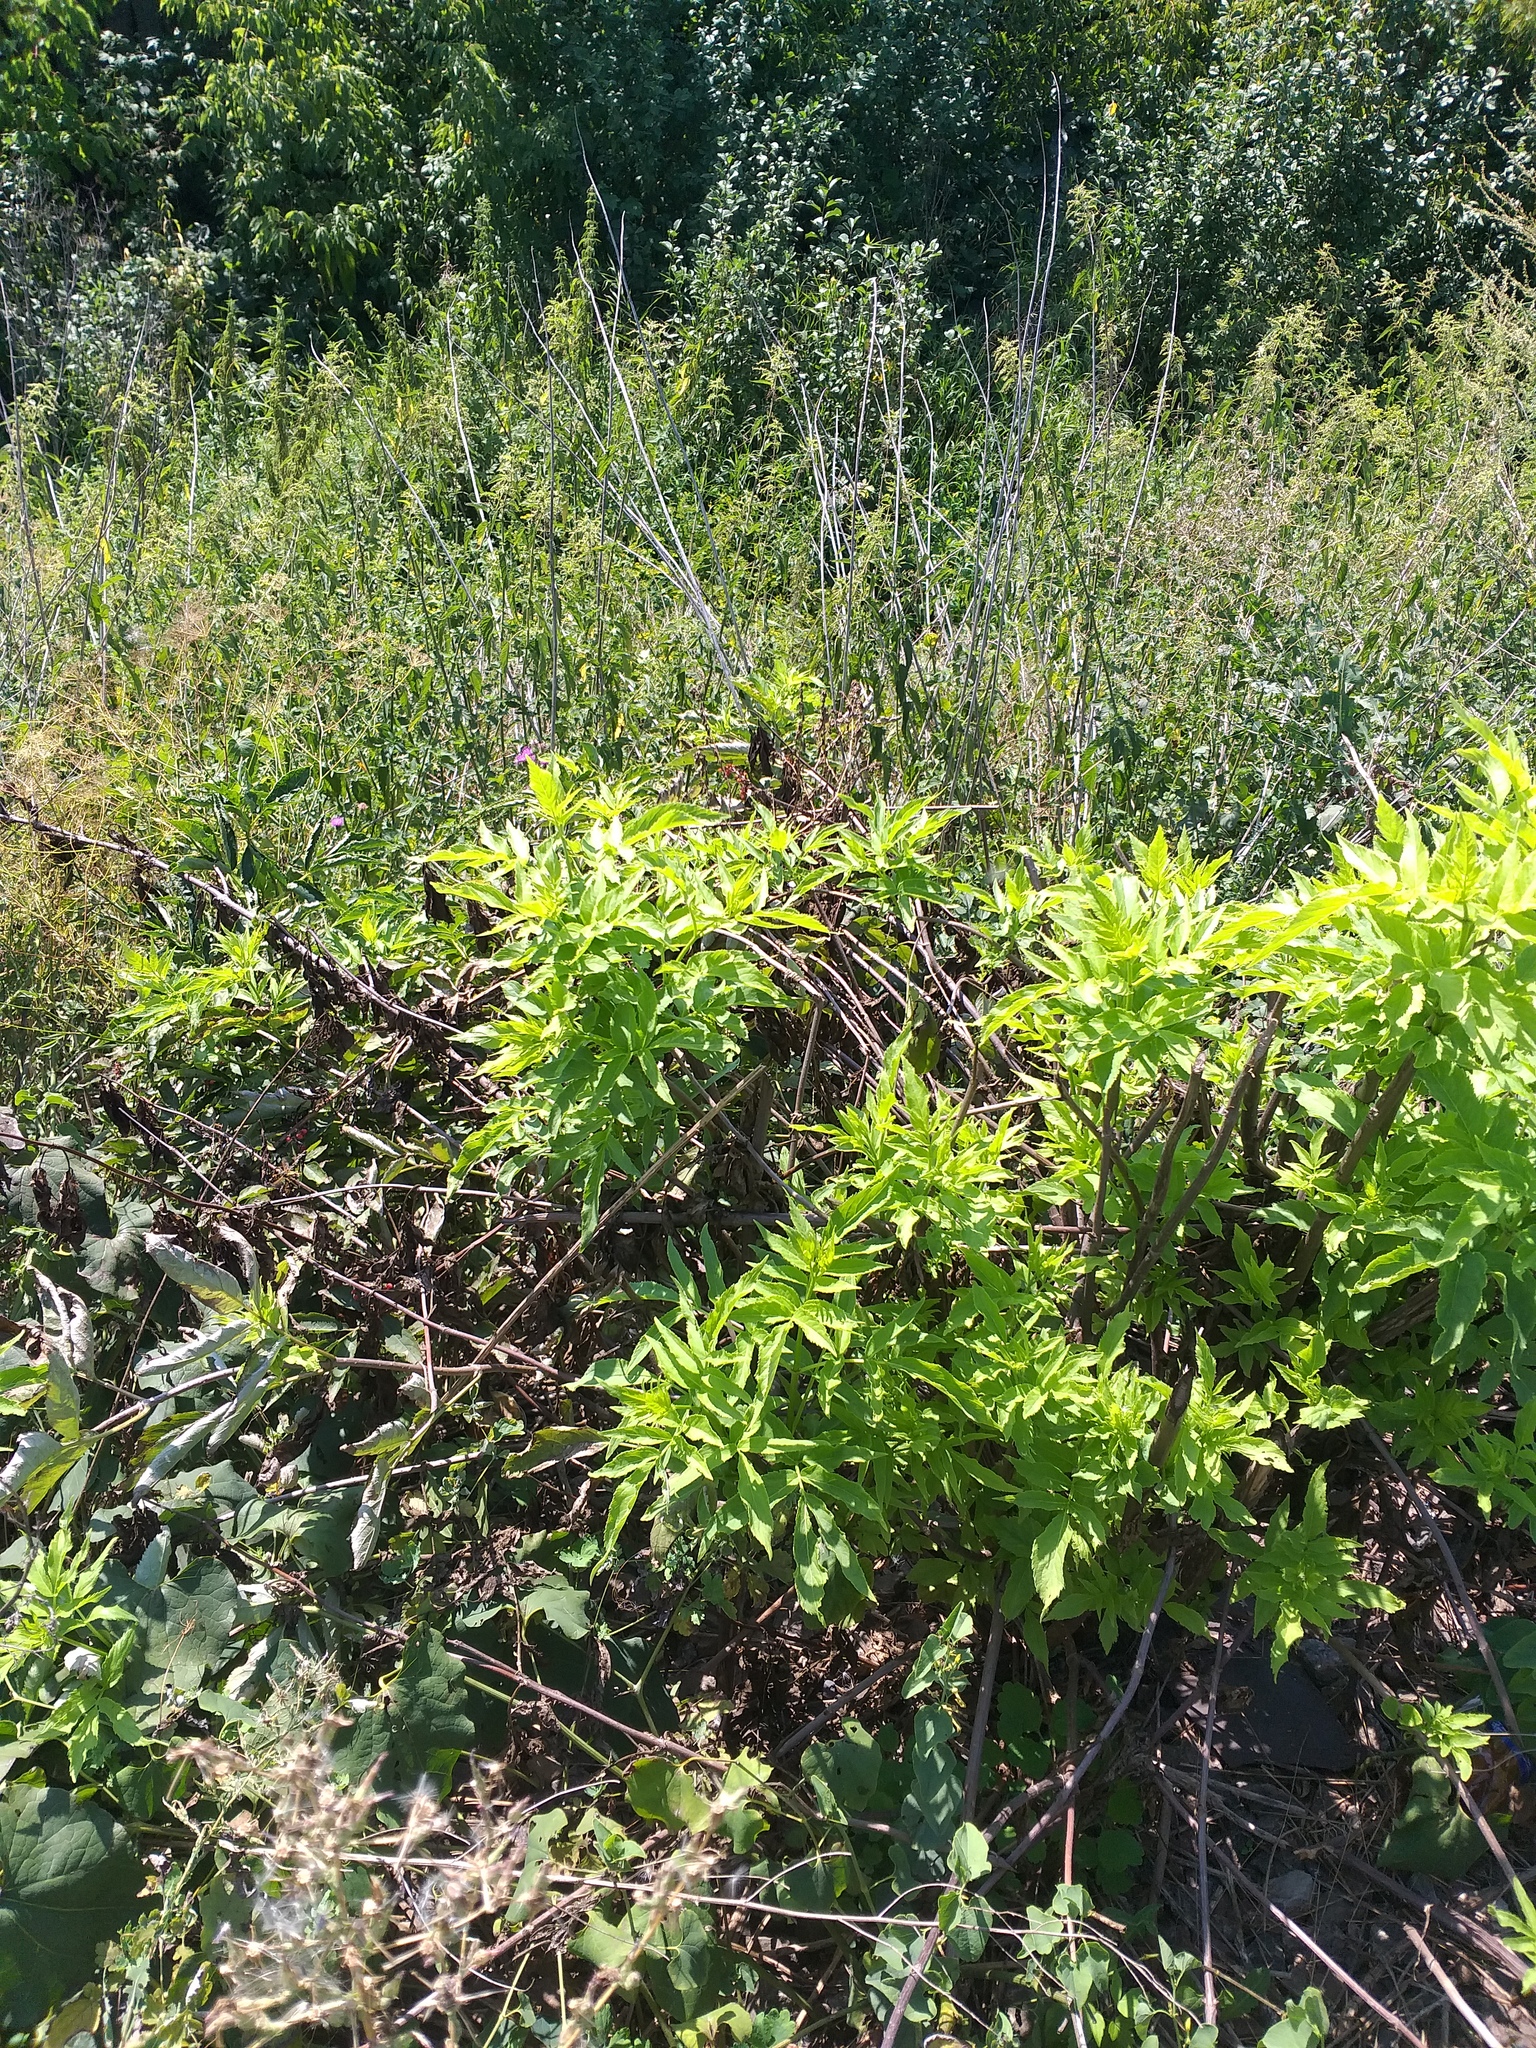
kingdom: Plantae
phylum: Tracheophyta
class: Magnoliopsida
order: Dipsacales
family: Viburnaceae
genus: Sambucus
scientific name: Sambucus racemosa
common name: Red-berried elder
